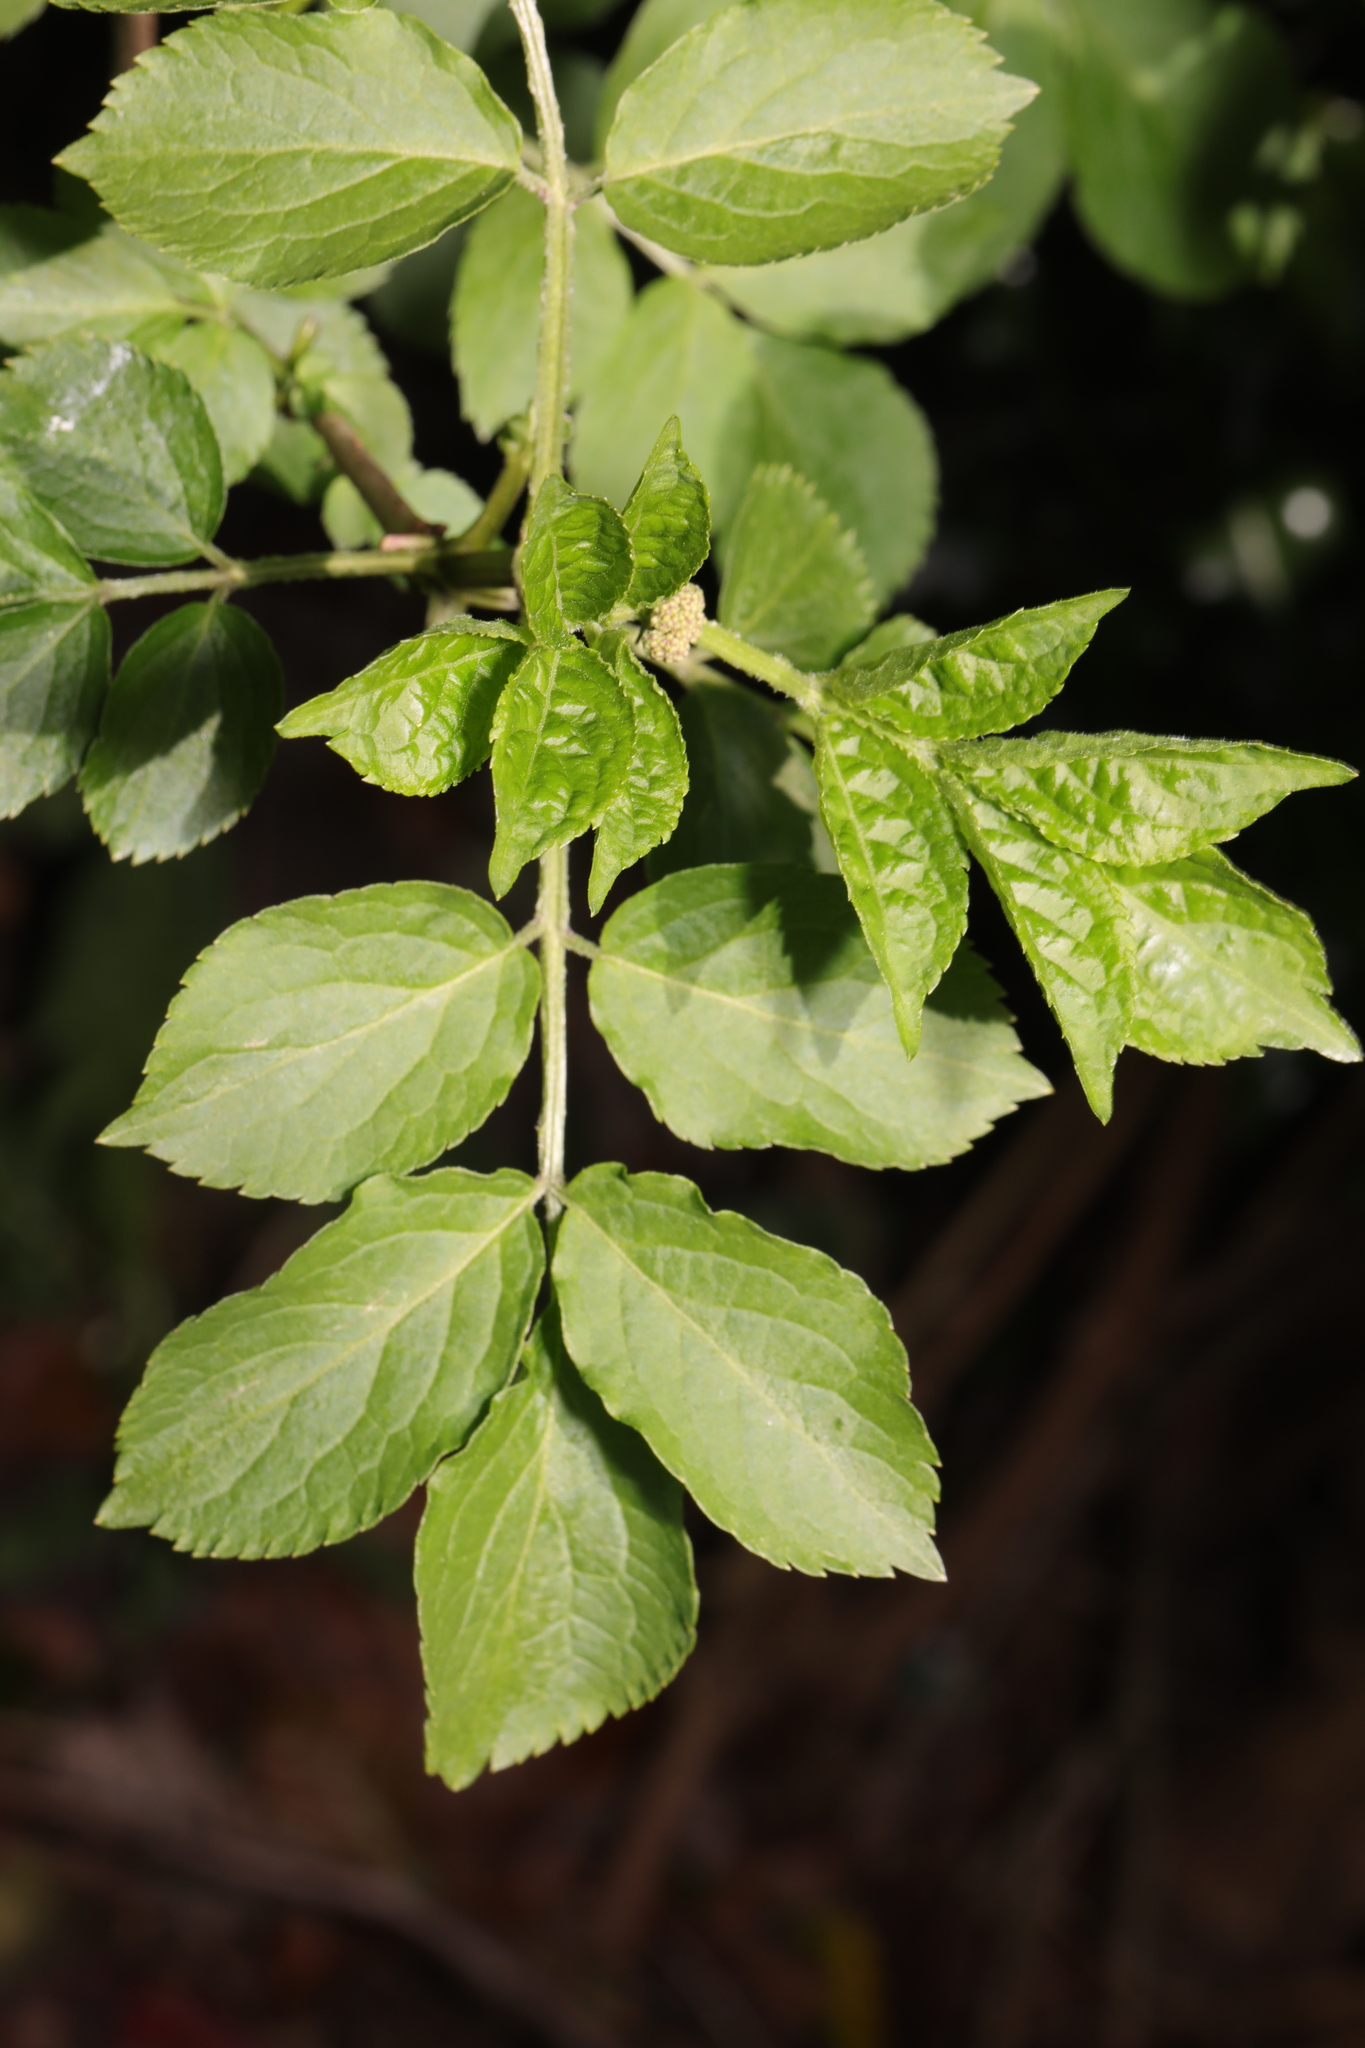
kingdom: Plantae
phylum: Tracheophyta
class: Magnoliopsida
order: Dipsacales
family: Viburnaceae
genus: Sambucus
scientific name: Sambucus nigra
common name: Elder
